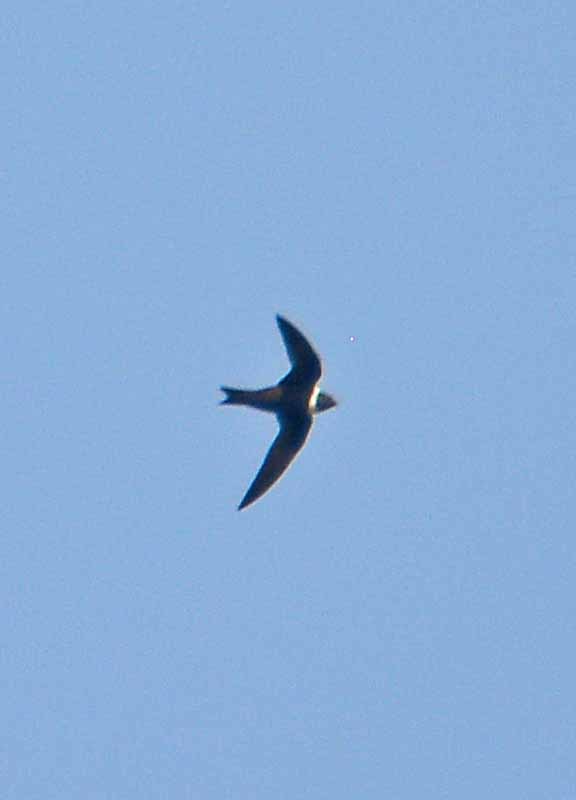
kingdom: Animalia
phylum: Chordata
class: Aves
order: Apodiformes
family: Apodidae
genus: Streptoprocne
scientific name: Streptoprocne zonaris
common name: White-collared swift
